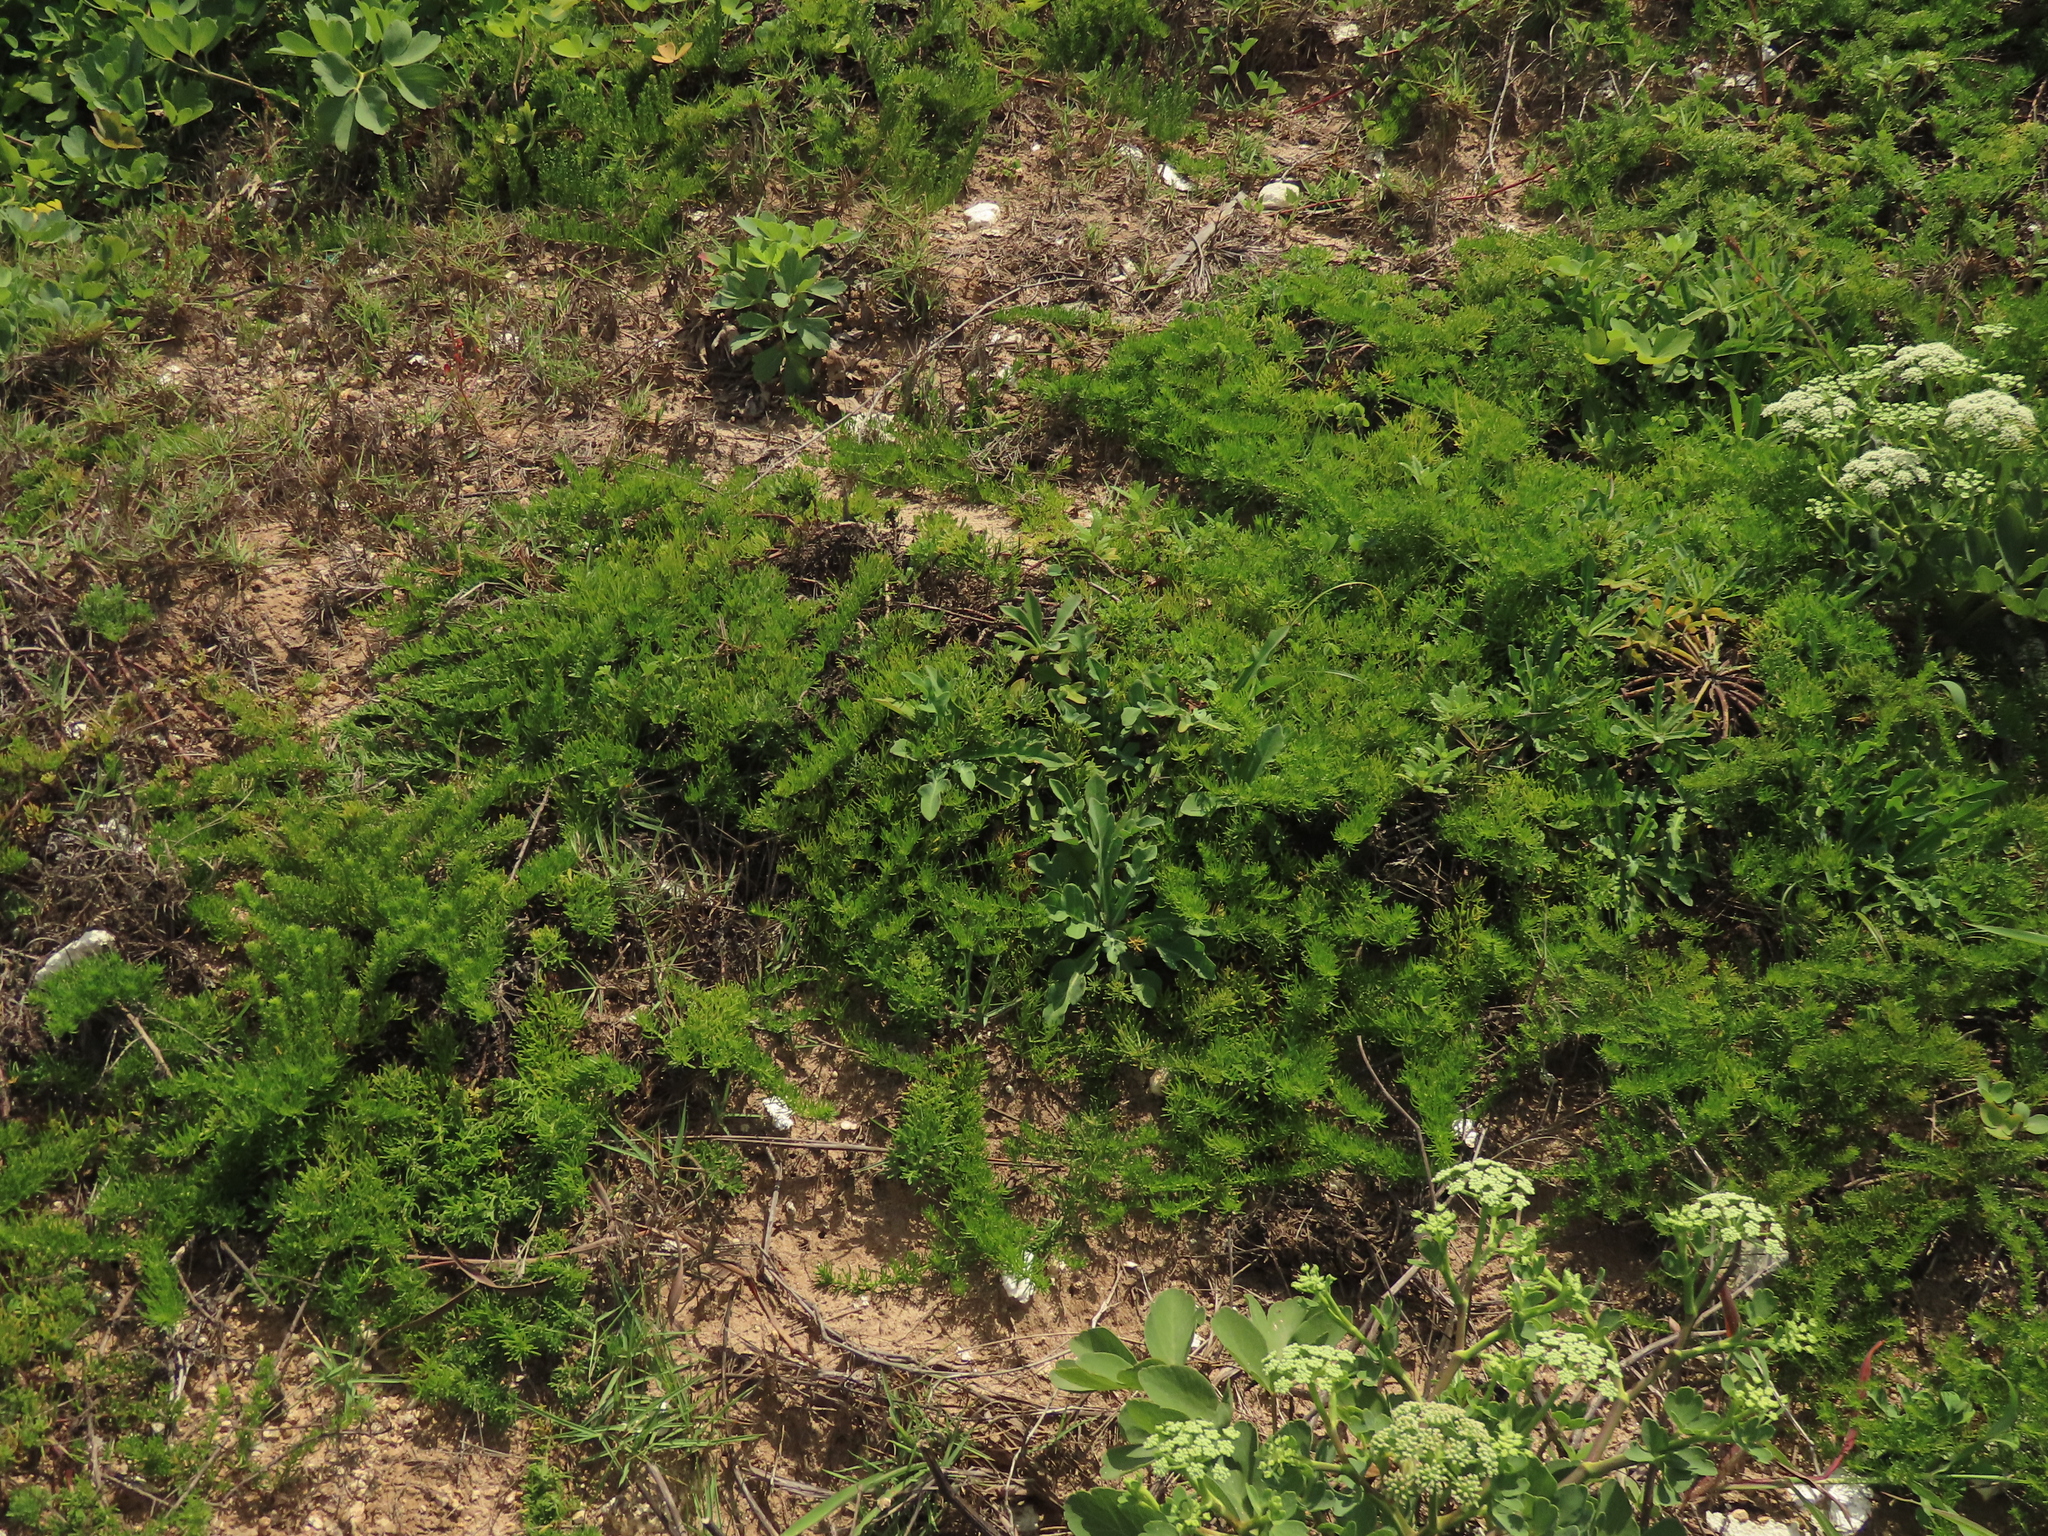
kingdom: Plantae
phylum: Tracheophyta
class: Magnoliopsida
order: Asterales
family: Asteraceae
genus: Artemisia
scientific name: Artemisia capillaris
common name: Yin-chen wormwood
